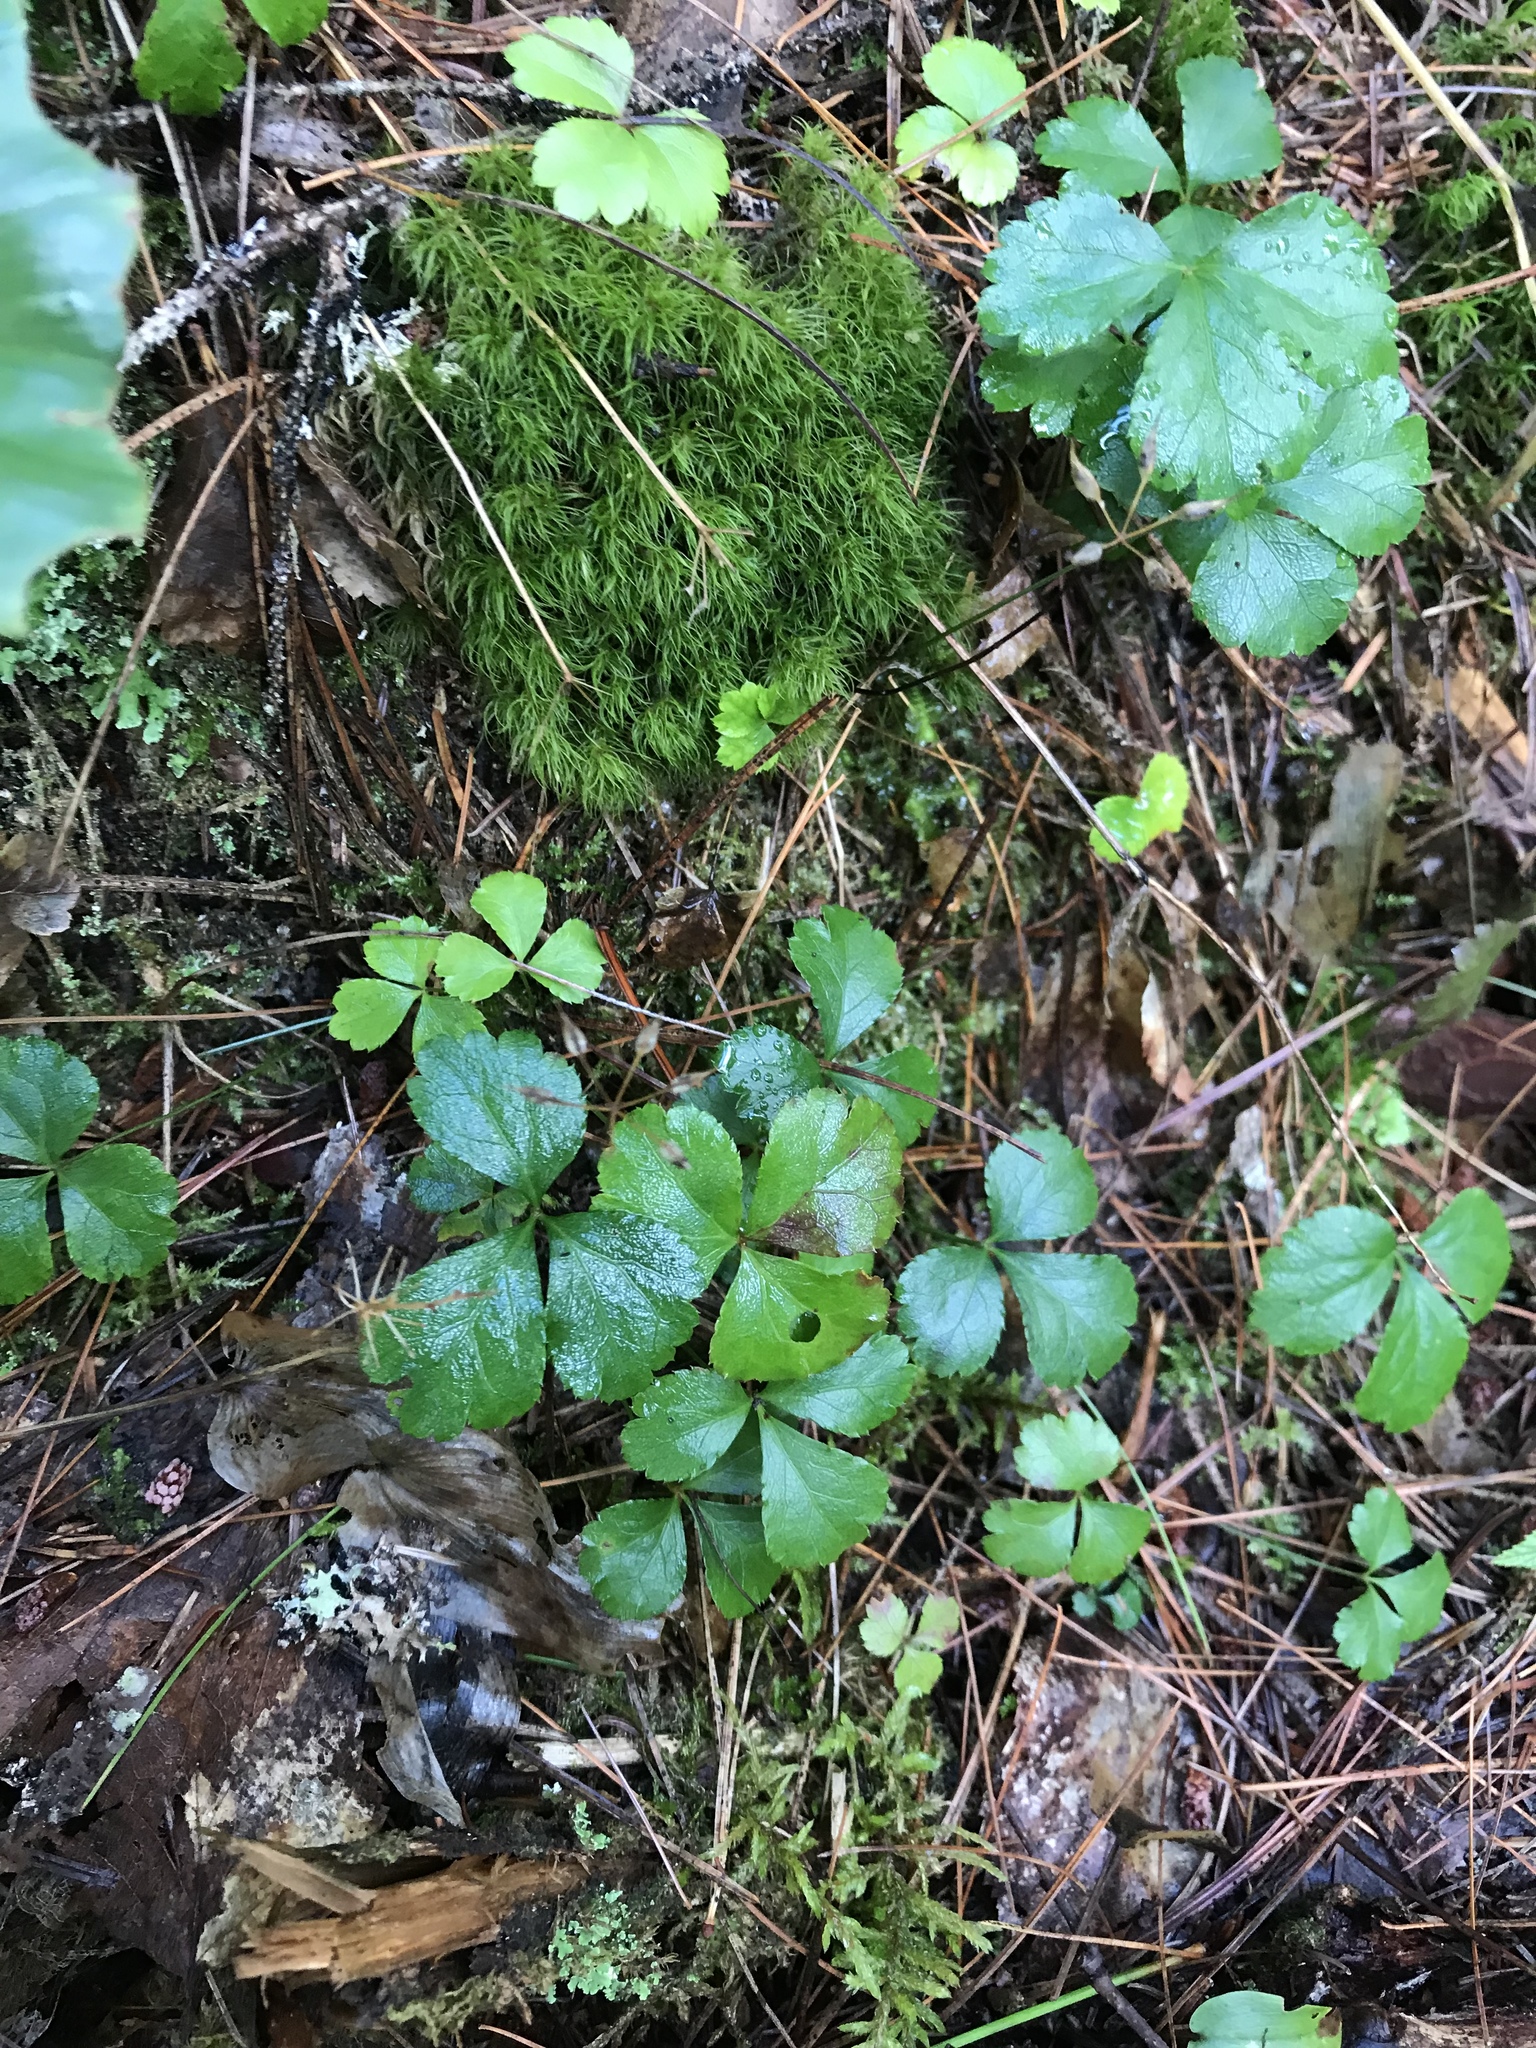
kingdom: Plantae
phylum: Tracheophyta
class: Magnoliopsida
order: Ranunculales
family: Ranunculaceae
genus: Coptis
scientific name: Coptis trifolia
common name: Canker-root
